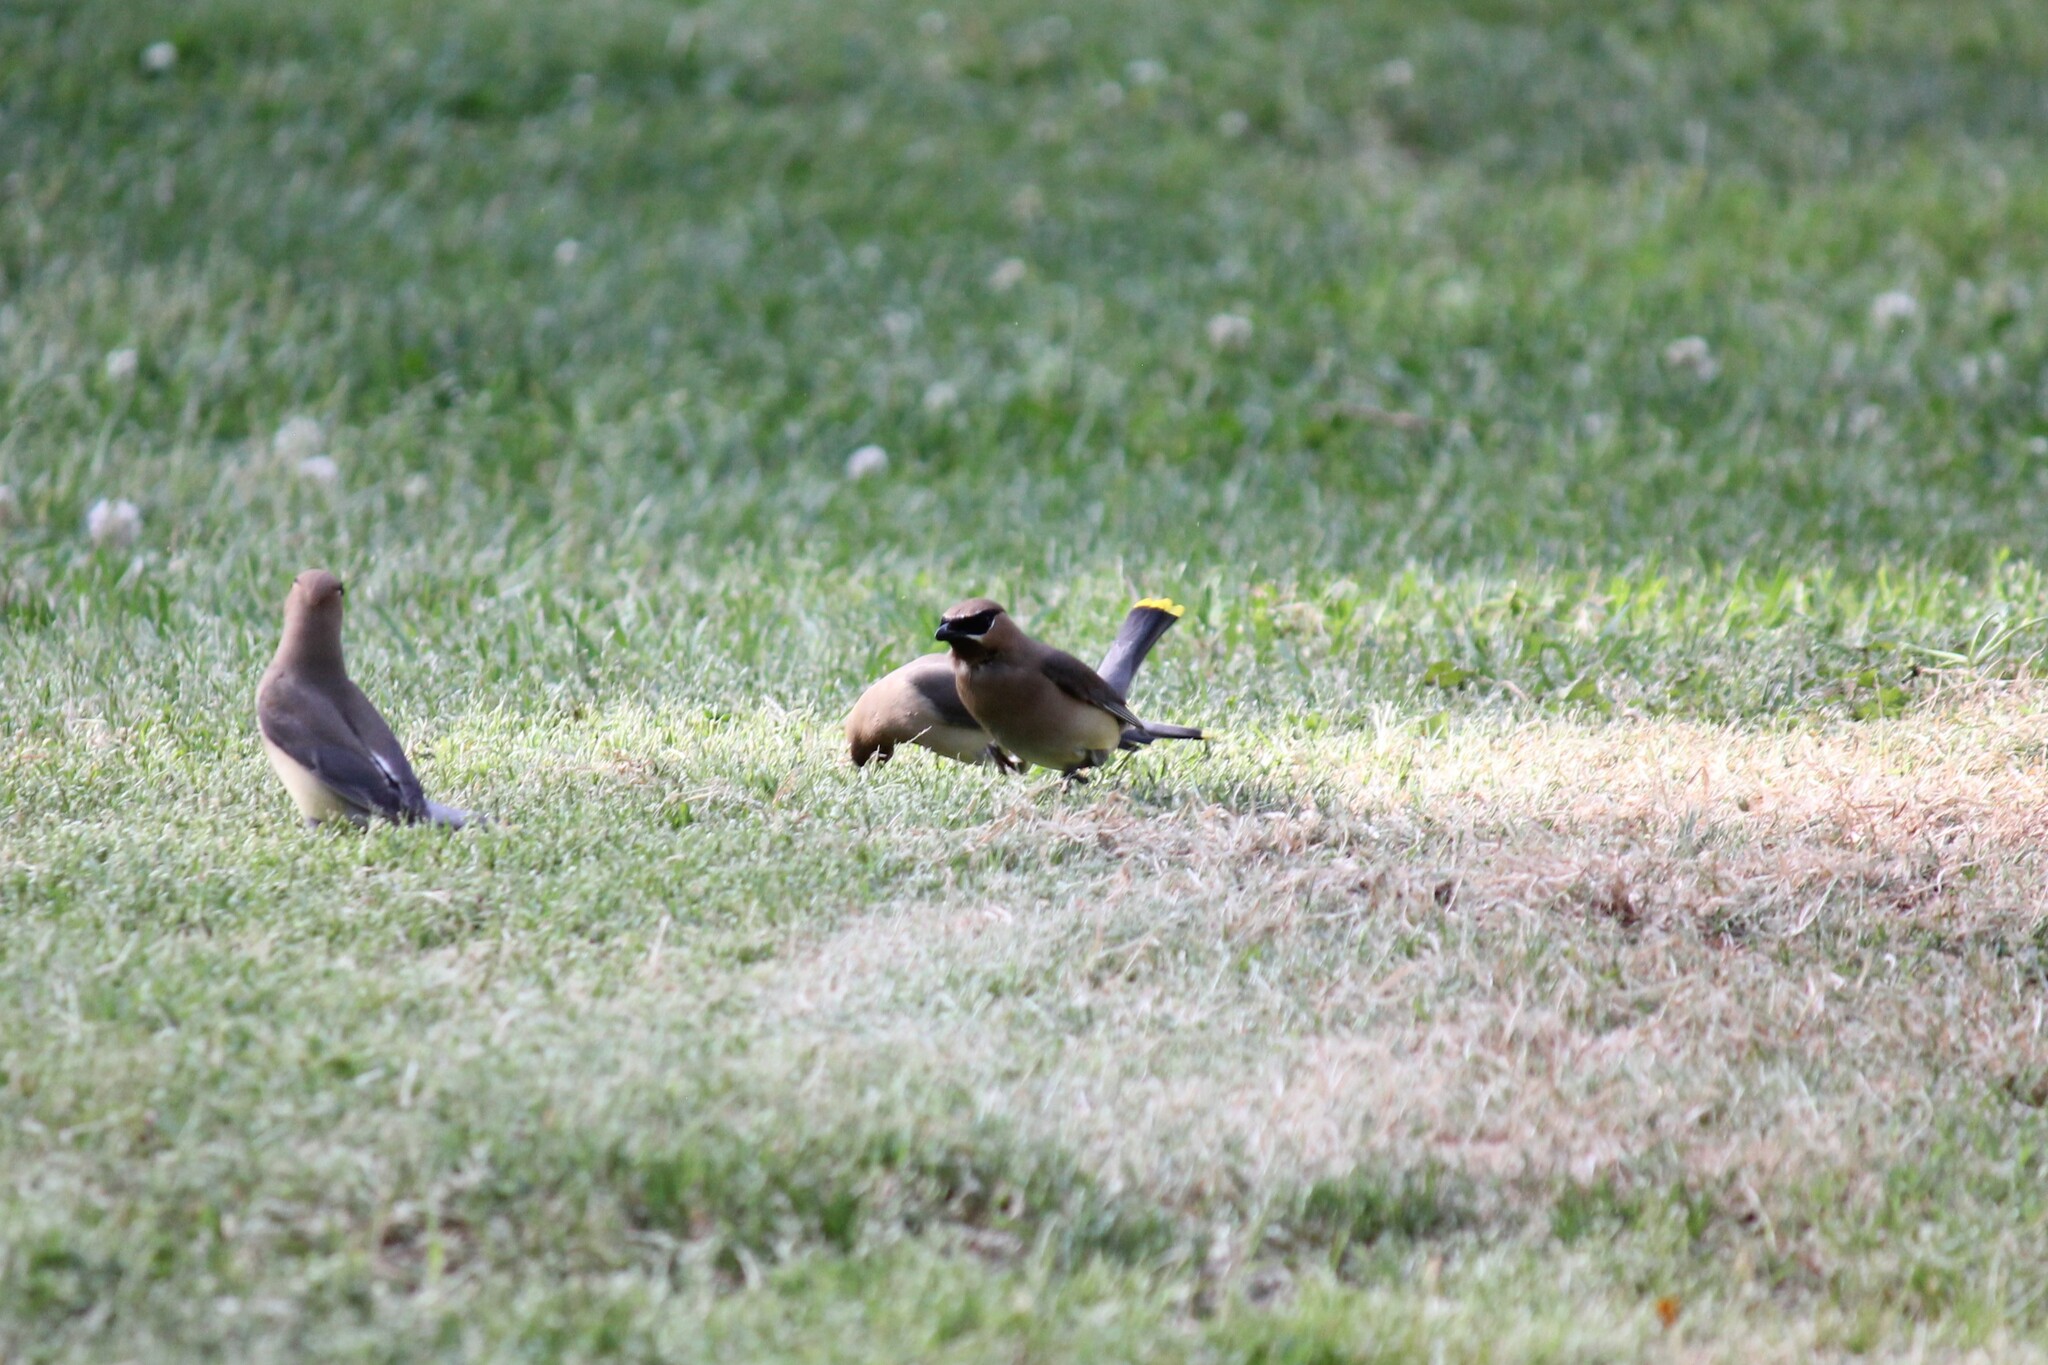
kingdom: Animalia
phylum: Chordata
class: Aves
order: Passeriformes
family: Bombycillidae
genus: Bombycilla
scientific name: Bombycilla cedrorum
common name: Cedar waxwing
